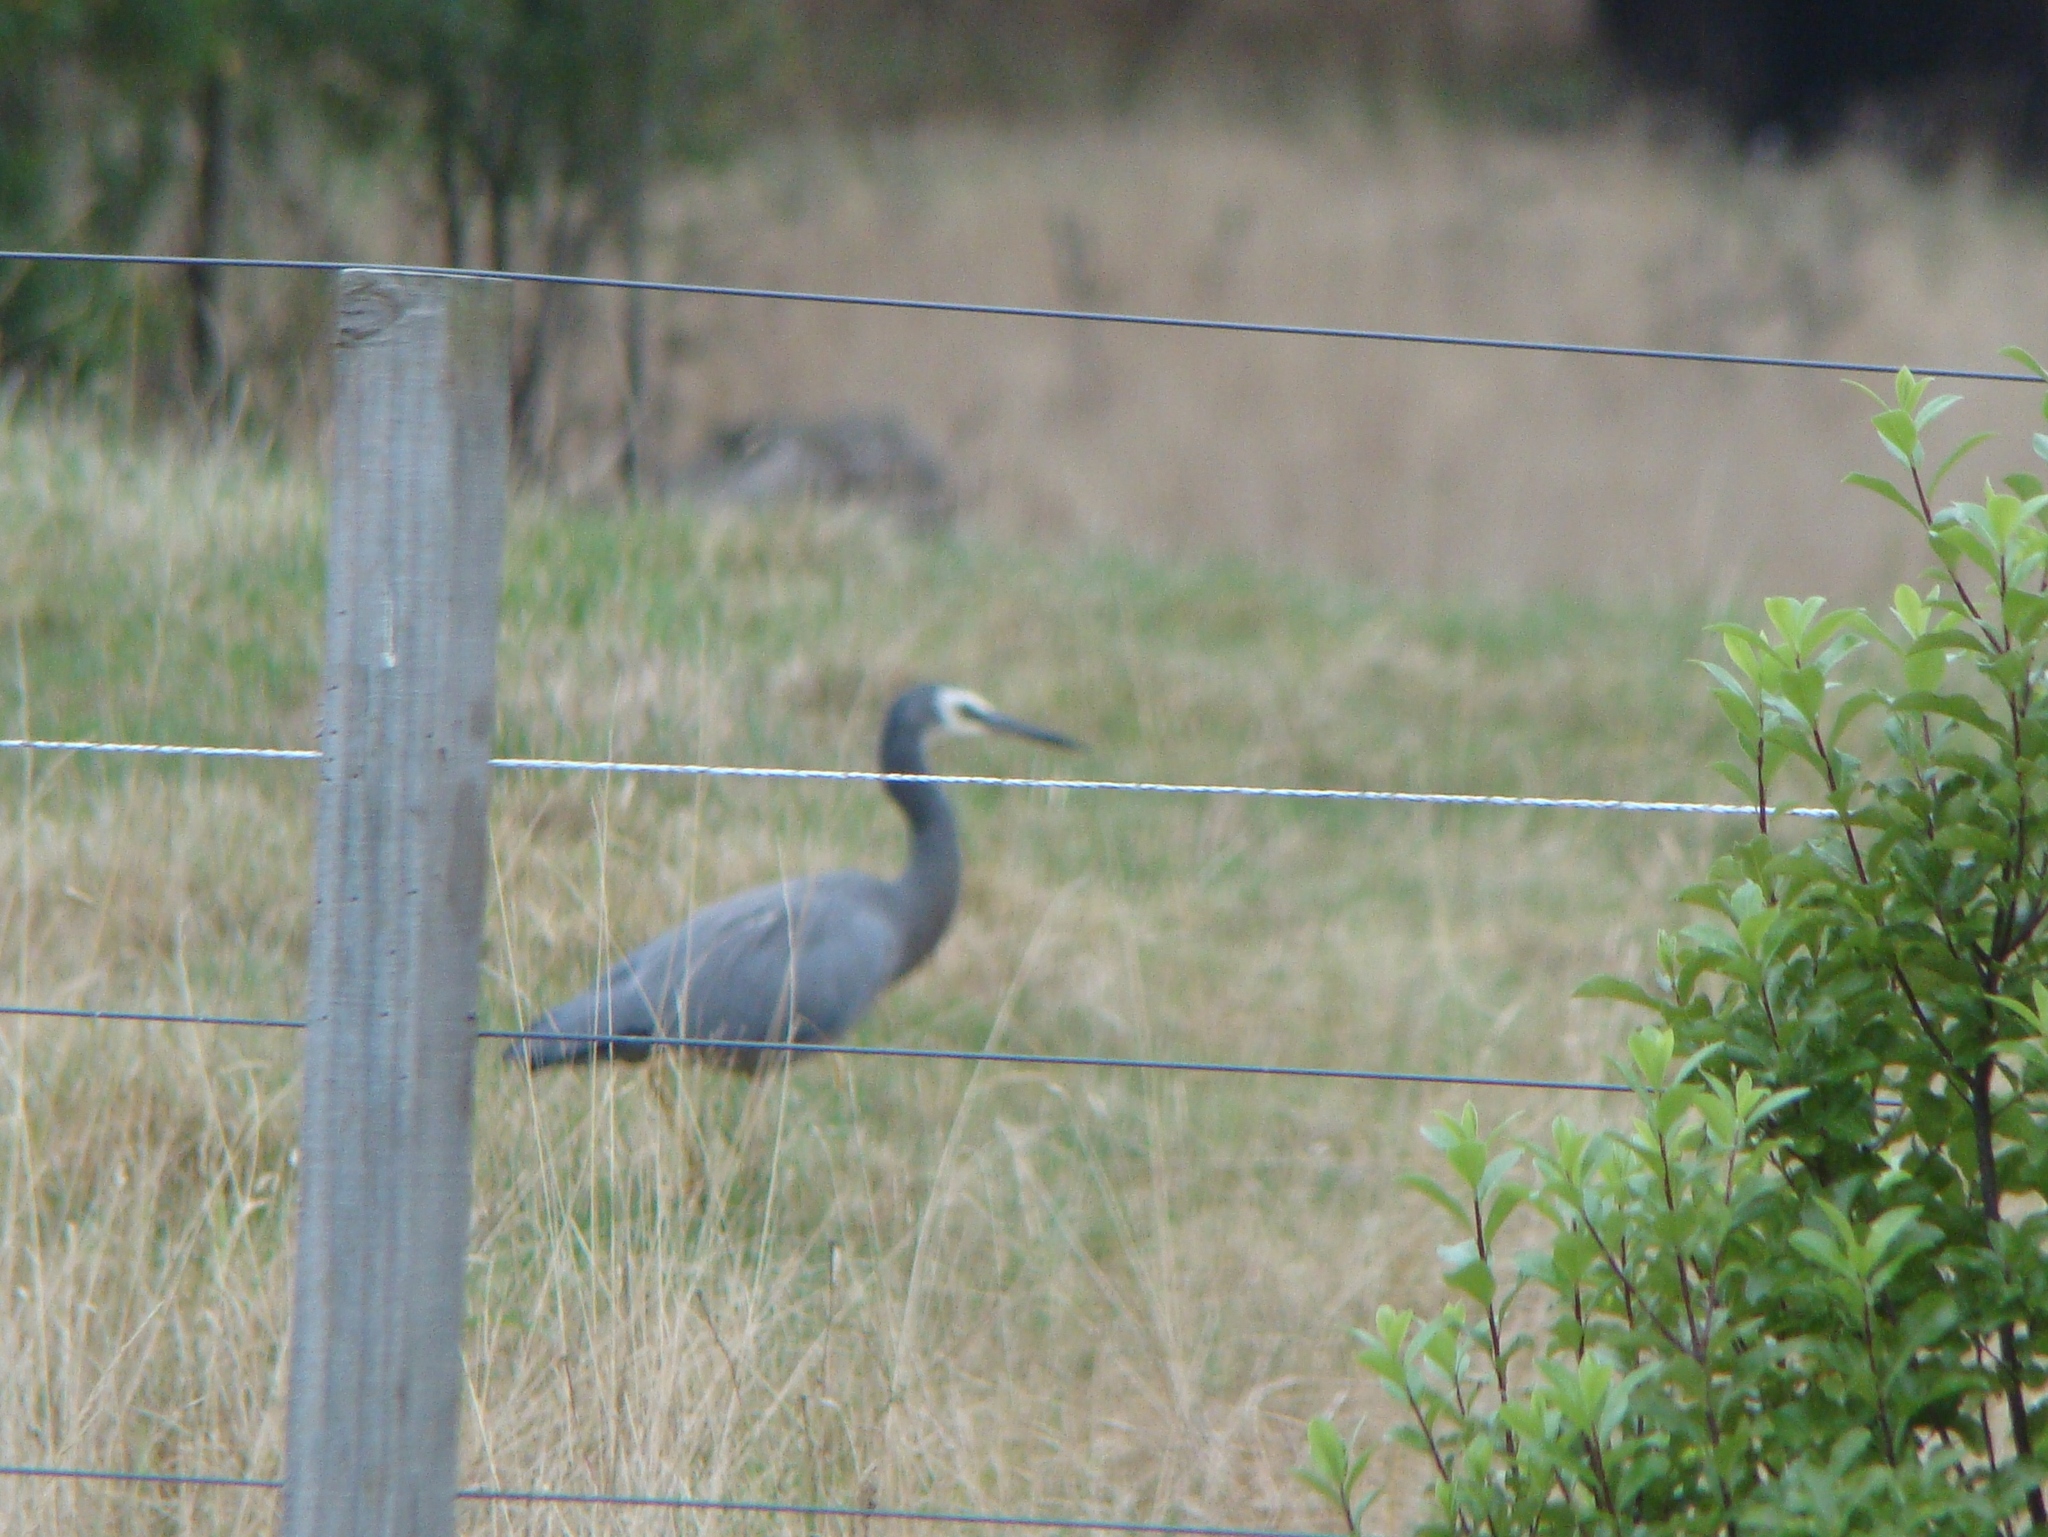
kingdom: Animalia
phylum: Chordata
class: Aves
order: Pelecaniformes
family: Ardeidae
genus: Egretta
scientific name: Egretta novaehollandiae
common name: White-faced heron
